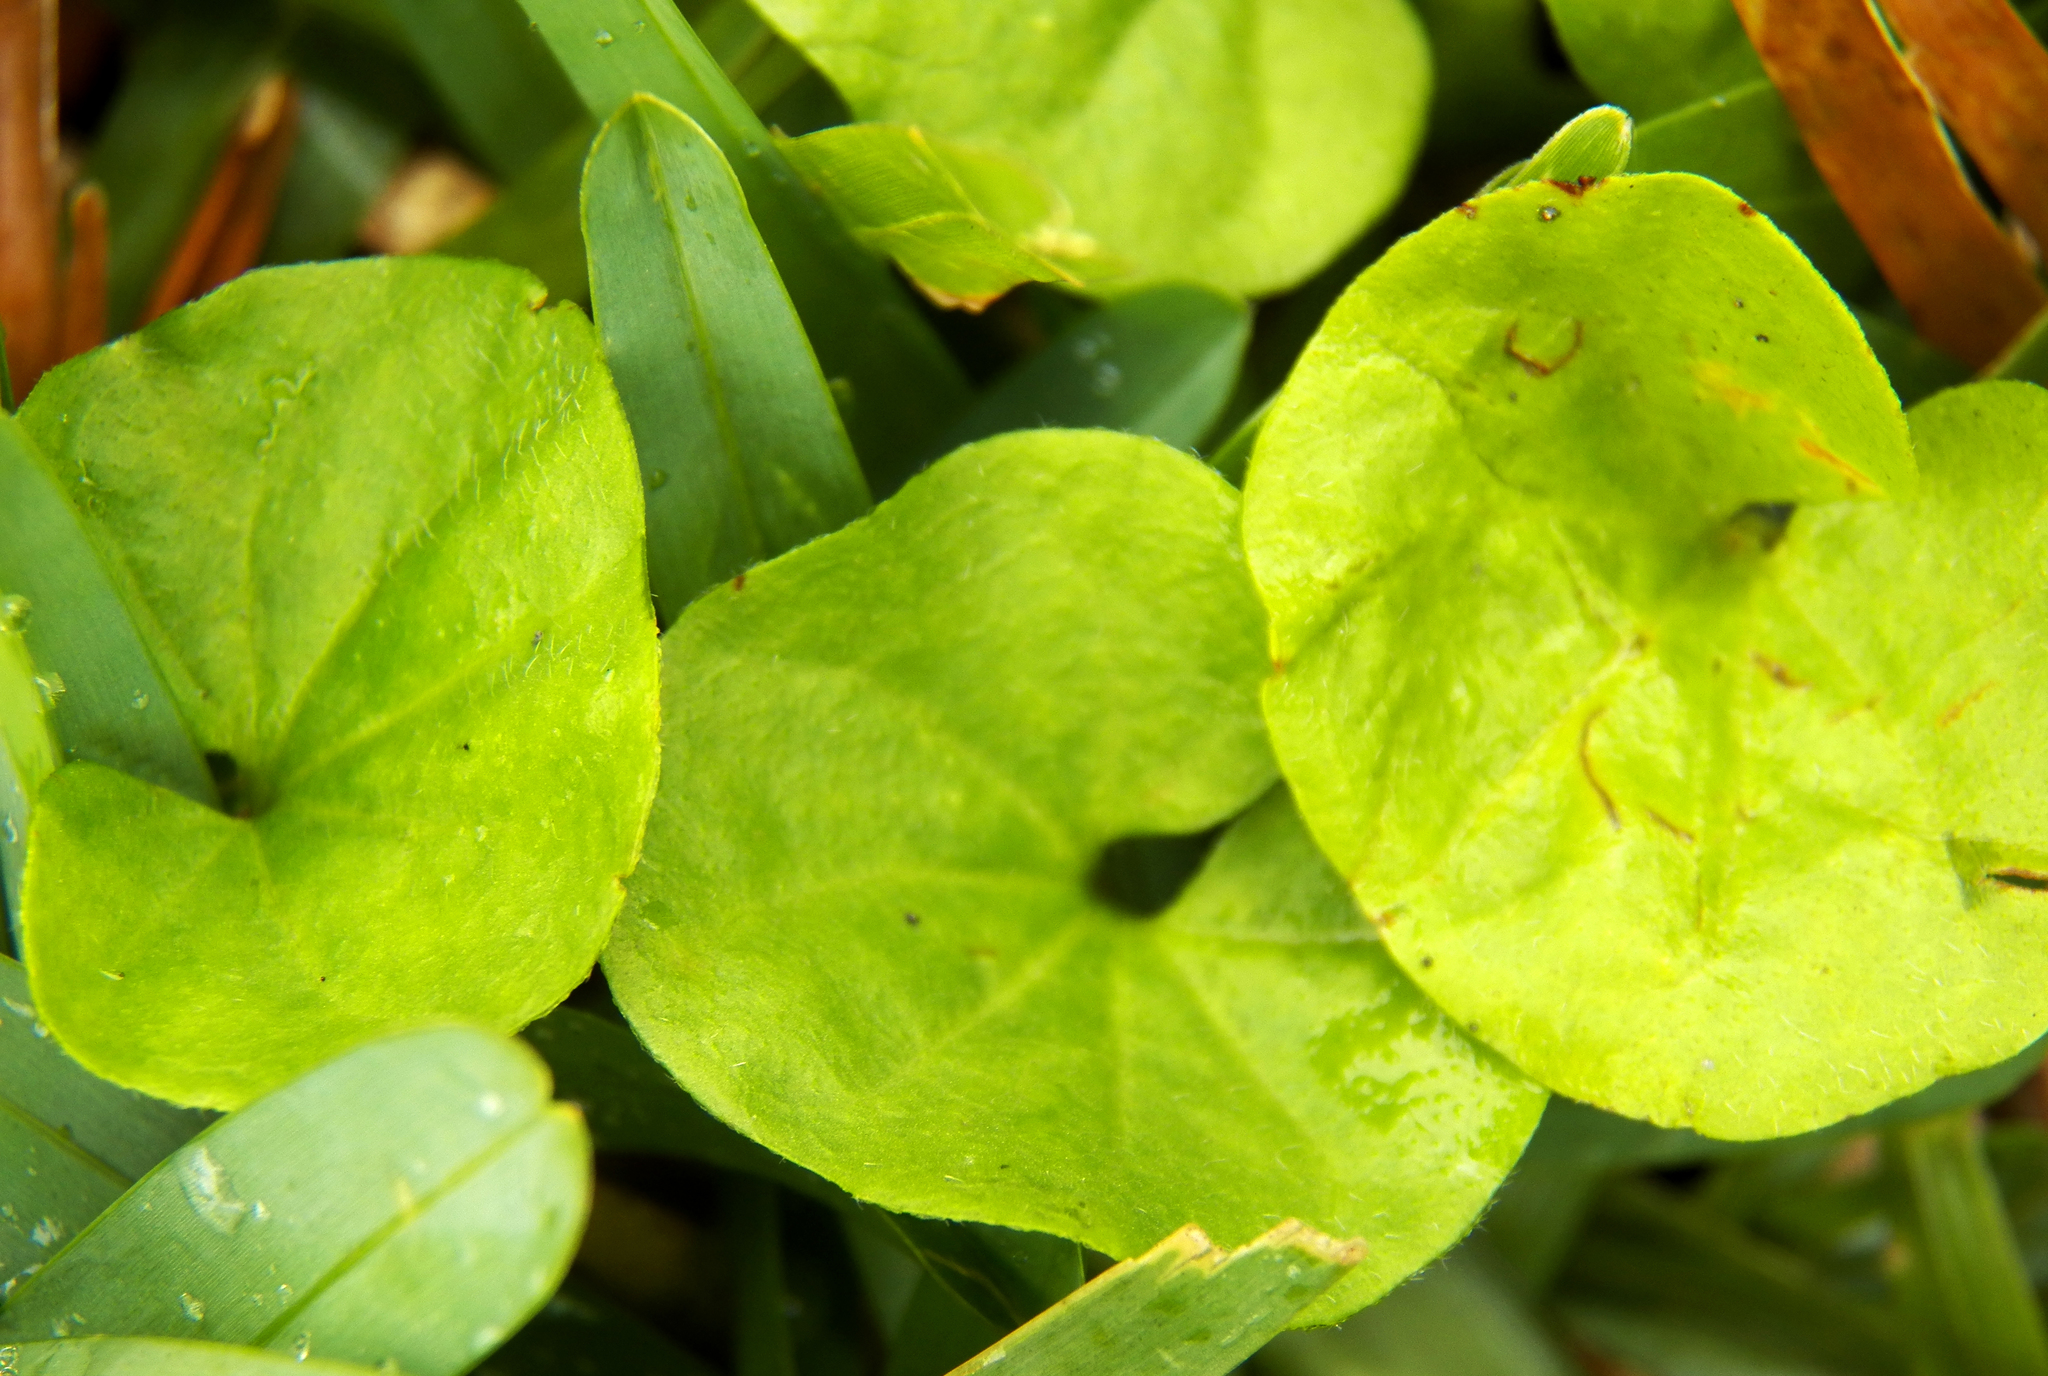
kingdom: Plantae
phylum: Tracheophyta
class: Magnoliopsida
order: Solanales
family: Convolvulaceae
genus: Dichondra
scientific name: Dichondra carolinensis
